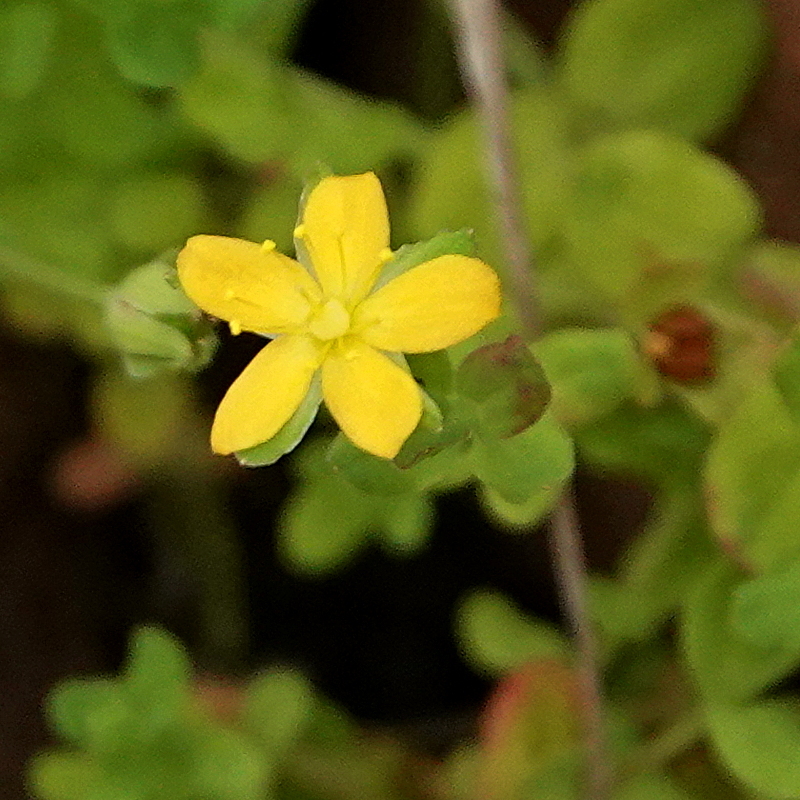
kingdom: Plantae
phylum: Tracheophyta
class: Magnoliopsida
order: Malpighiales
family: Hypericaceae
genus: Hypericum
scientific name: Hypericum japonicum
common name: Matted st. john's-wort
